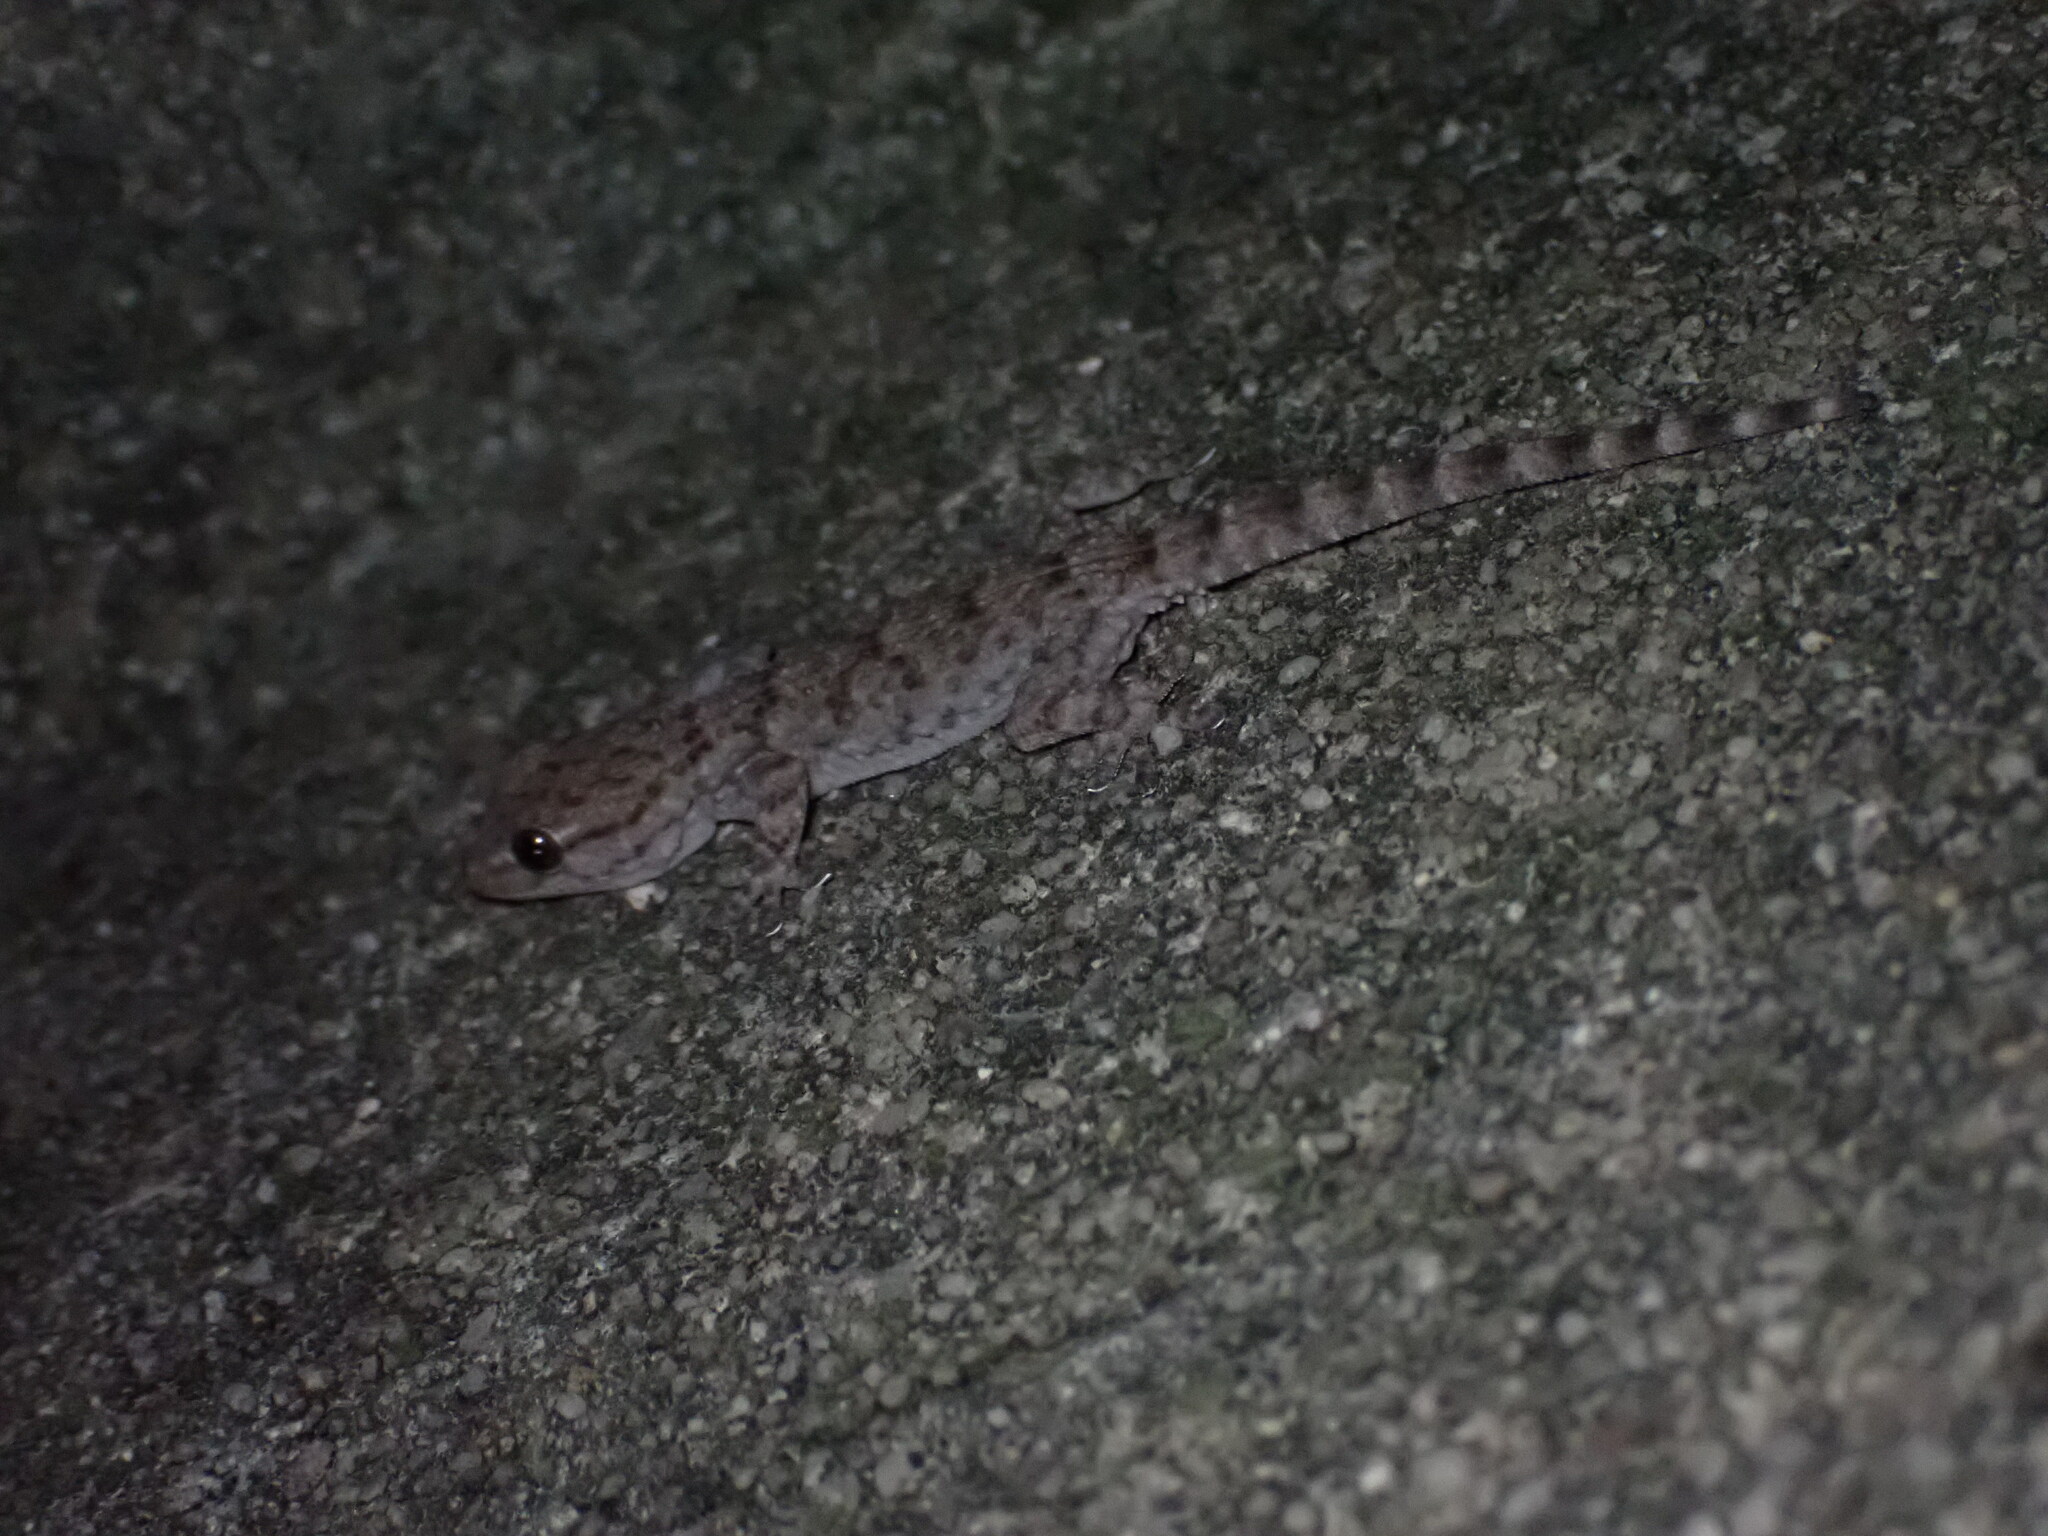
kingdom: Animalia
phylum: Chordata
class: Squamata
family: Phyllodactylidae
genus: Tarentola
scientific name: Tarentola mauritanica
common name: Moorish gecko
